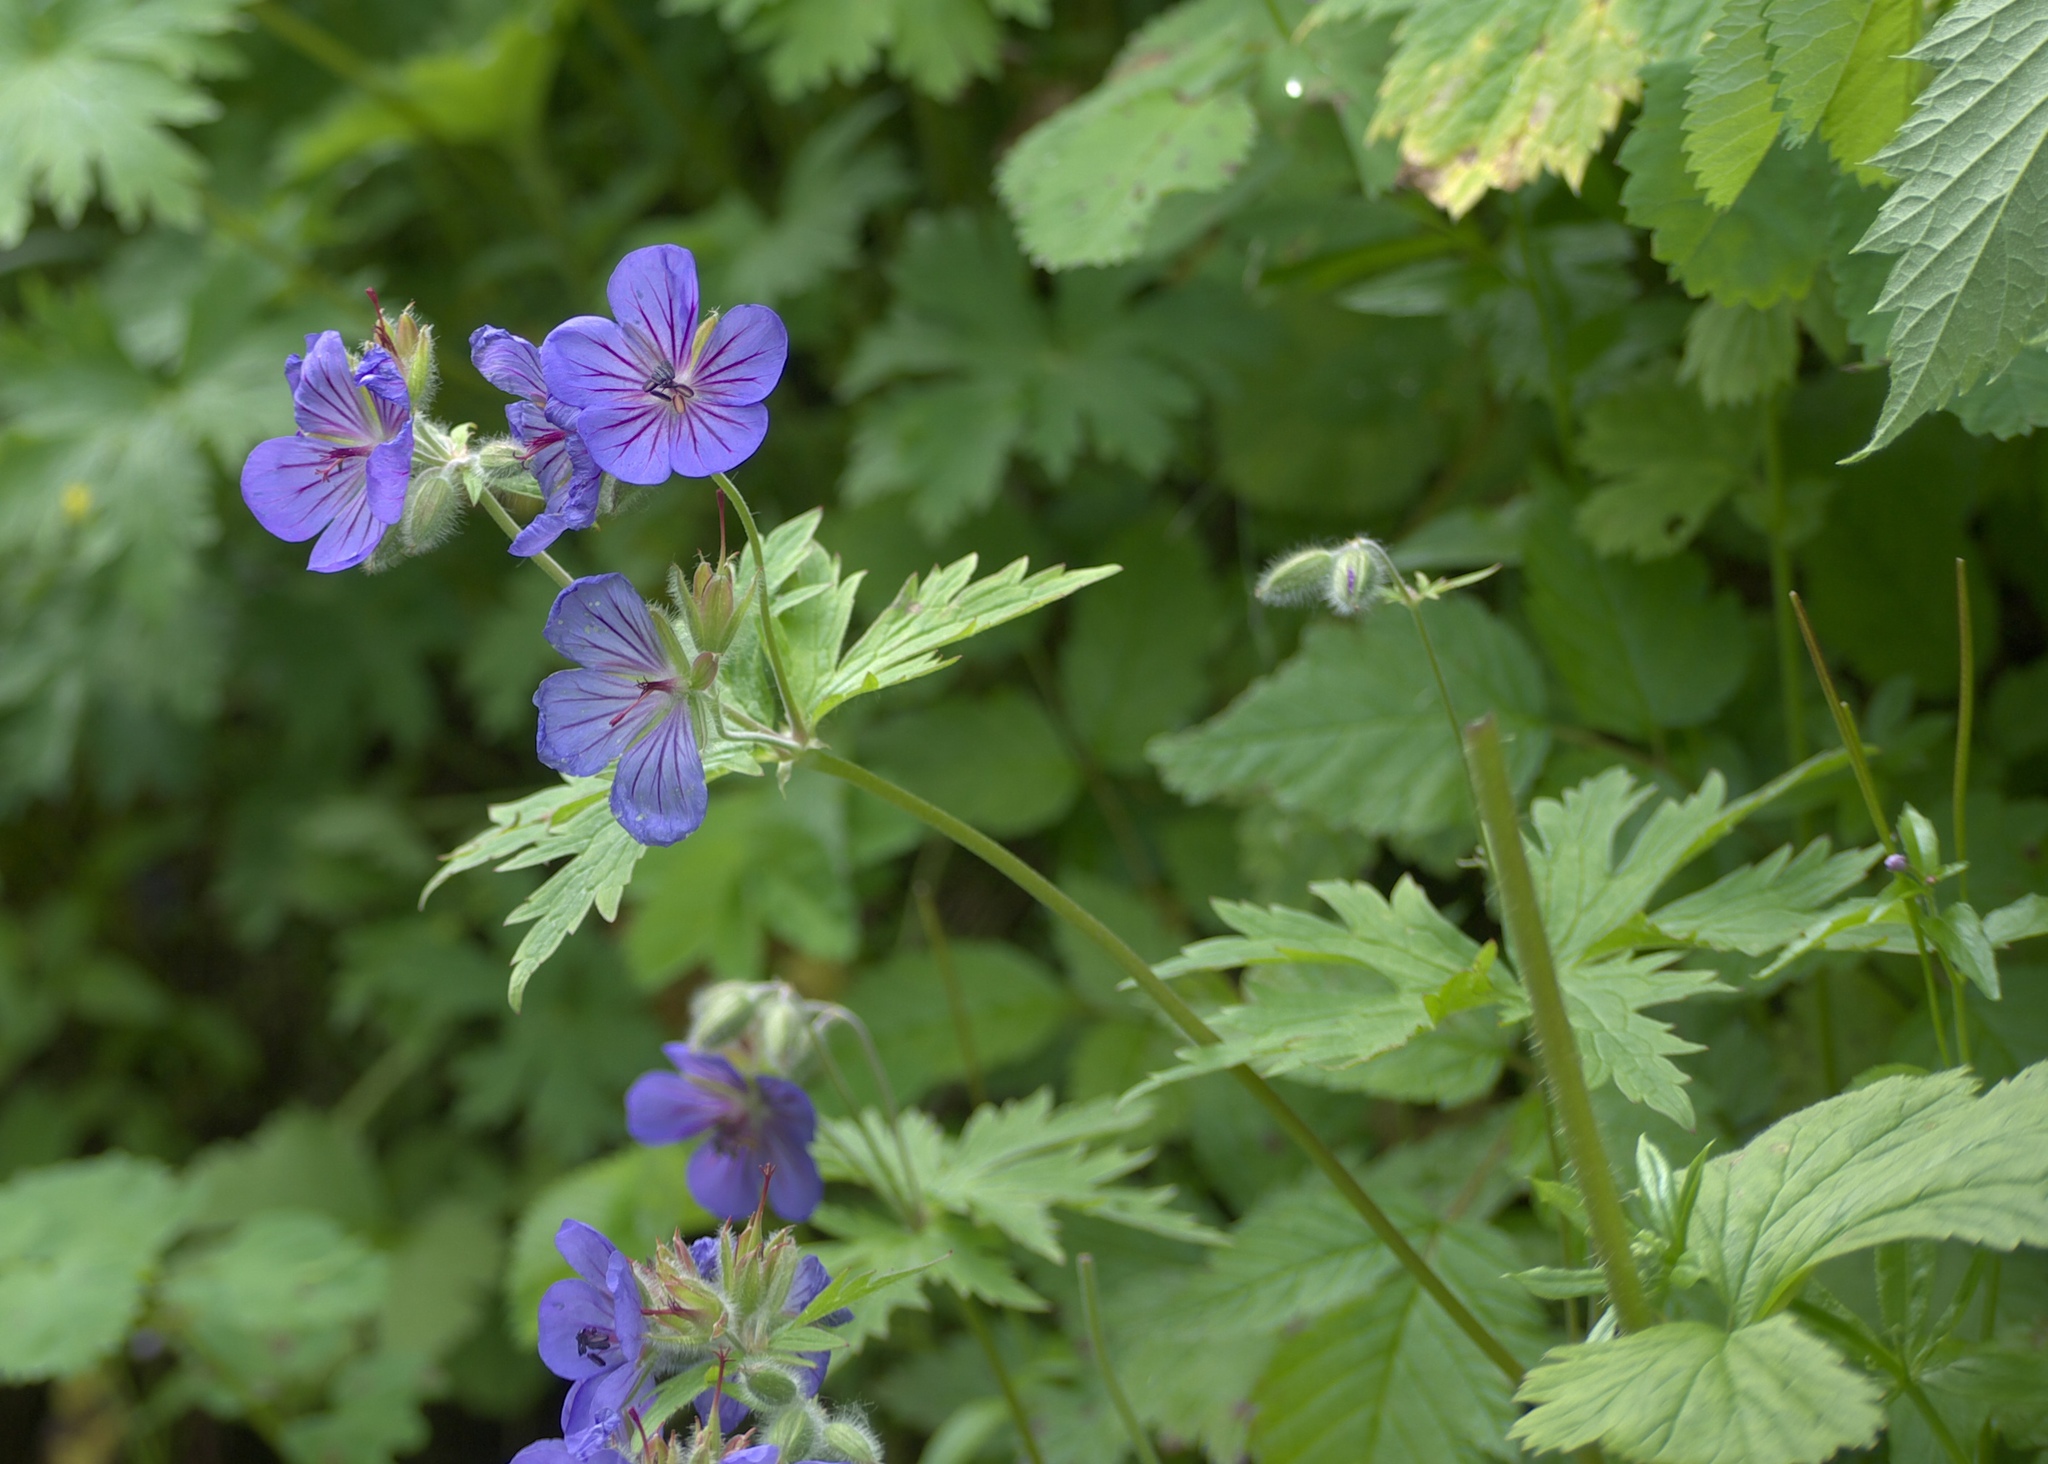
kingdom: Plantae
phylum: Tracheophyta
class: Magnoliopsida
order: Geraniales
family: Geraniaceae
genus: Geranium
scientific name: Geranium erianthum
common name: Northern crane's-bill
